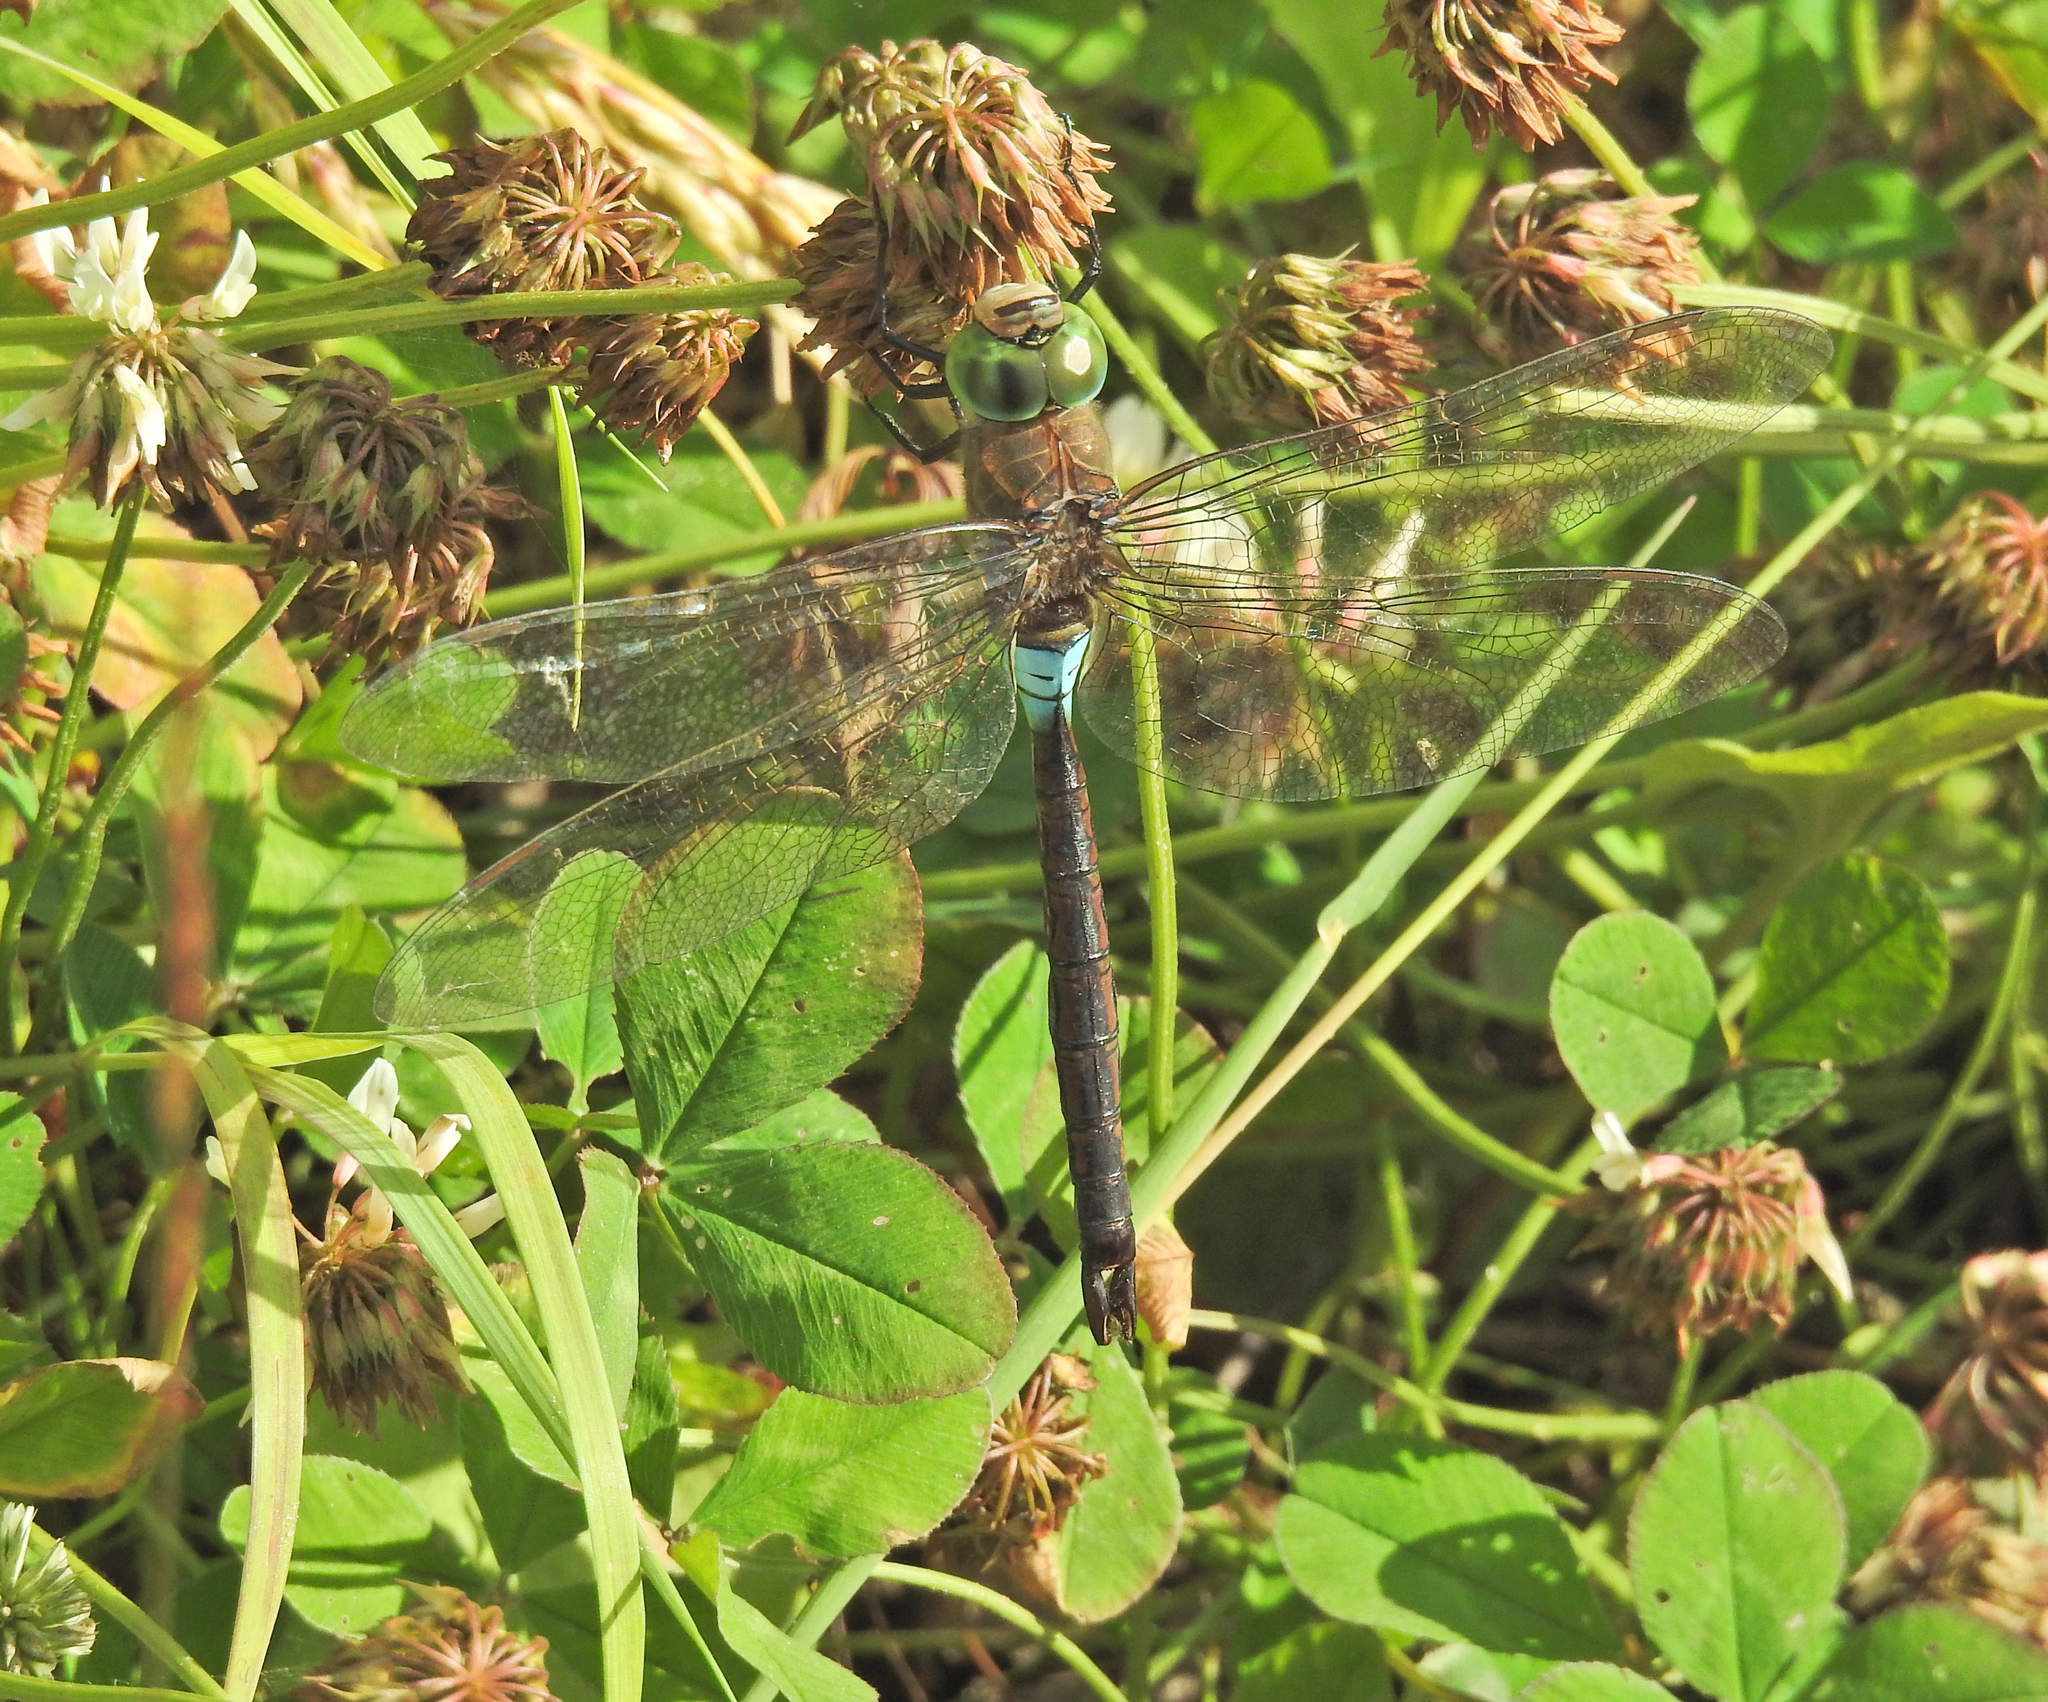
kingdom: Animalia
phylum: Arthropoda
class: Insecta
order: Odonata
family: Aeshnidae
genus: Anax
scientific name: Anax parthenope
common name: Lesser emperor
